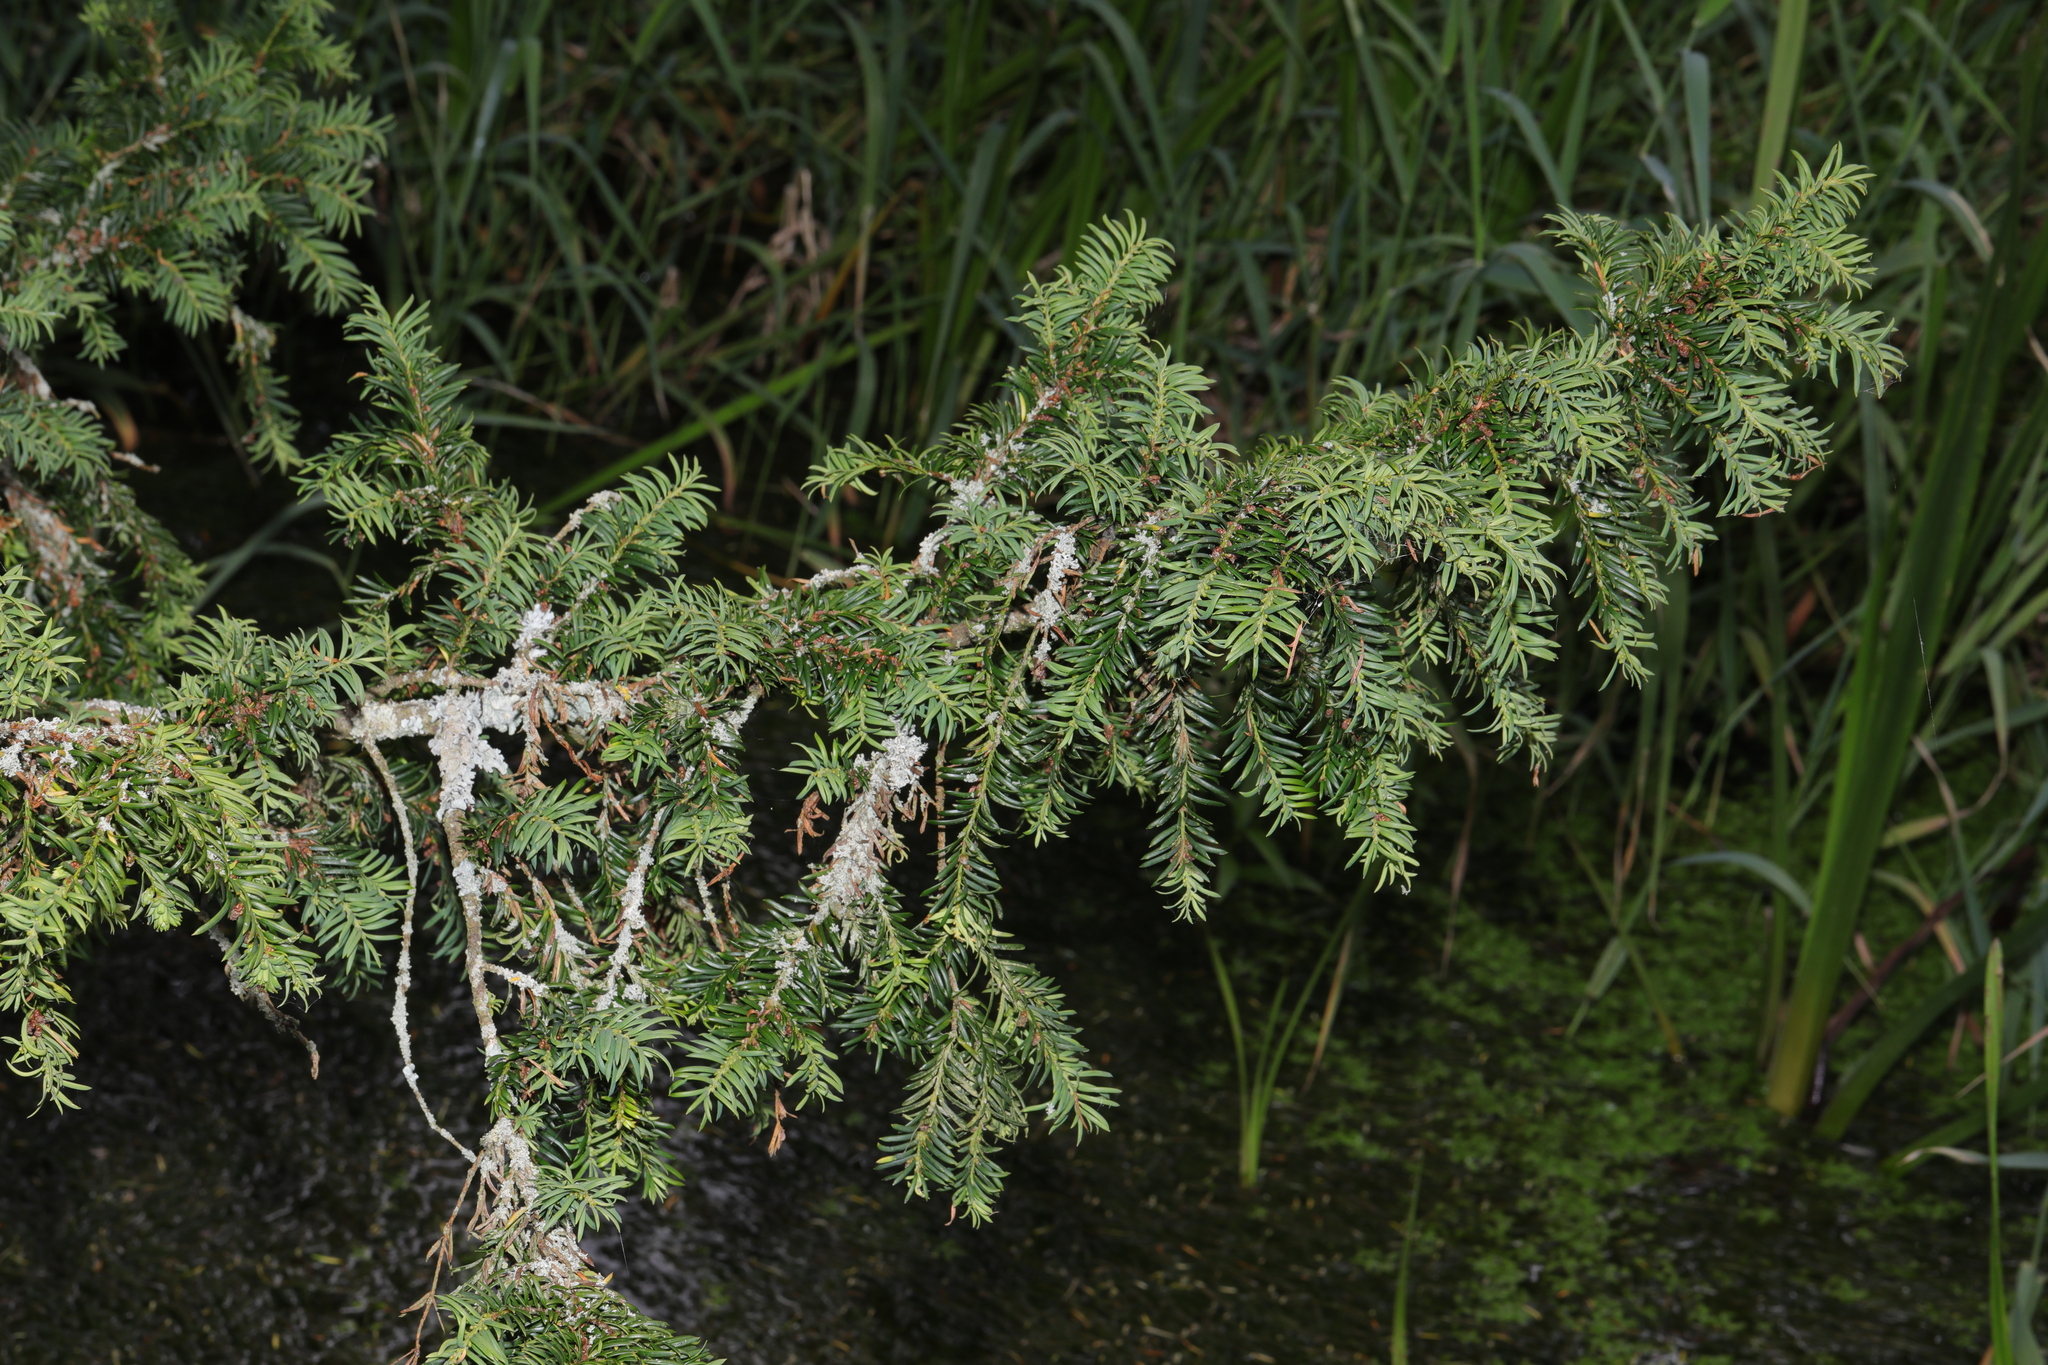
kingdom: Plantae
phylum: Tracheophyta
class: Pinopsida
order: Pinales
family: Taxaceae
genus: Taxus
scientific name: Taxus baccata
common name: Yew
